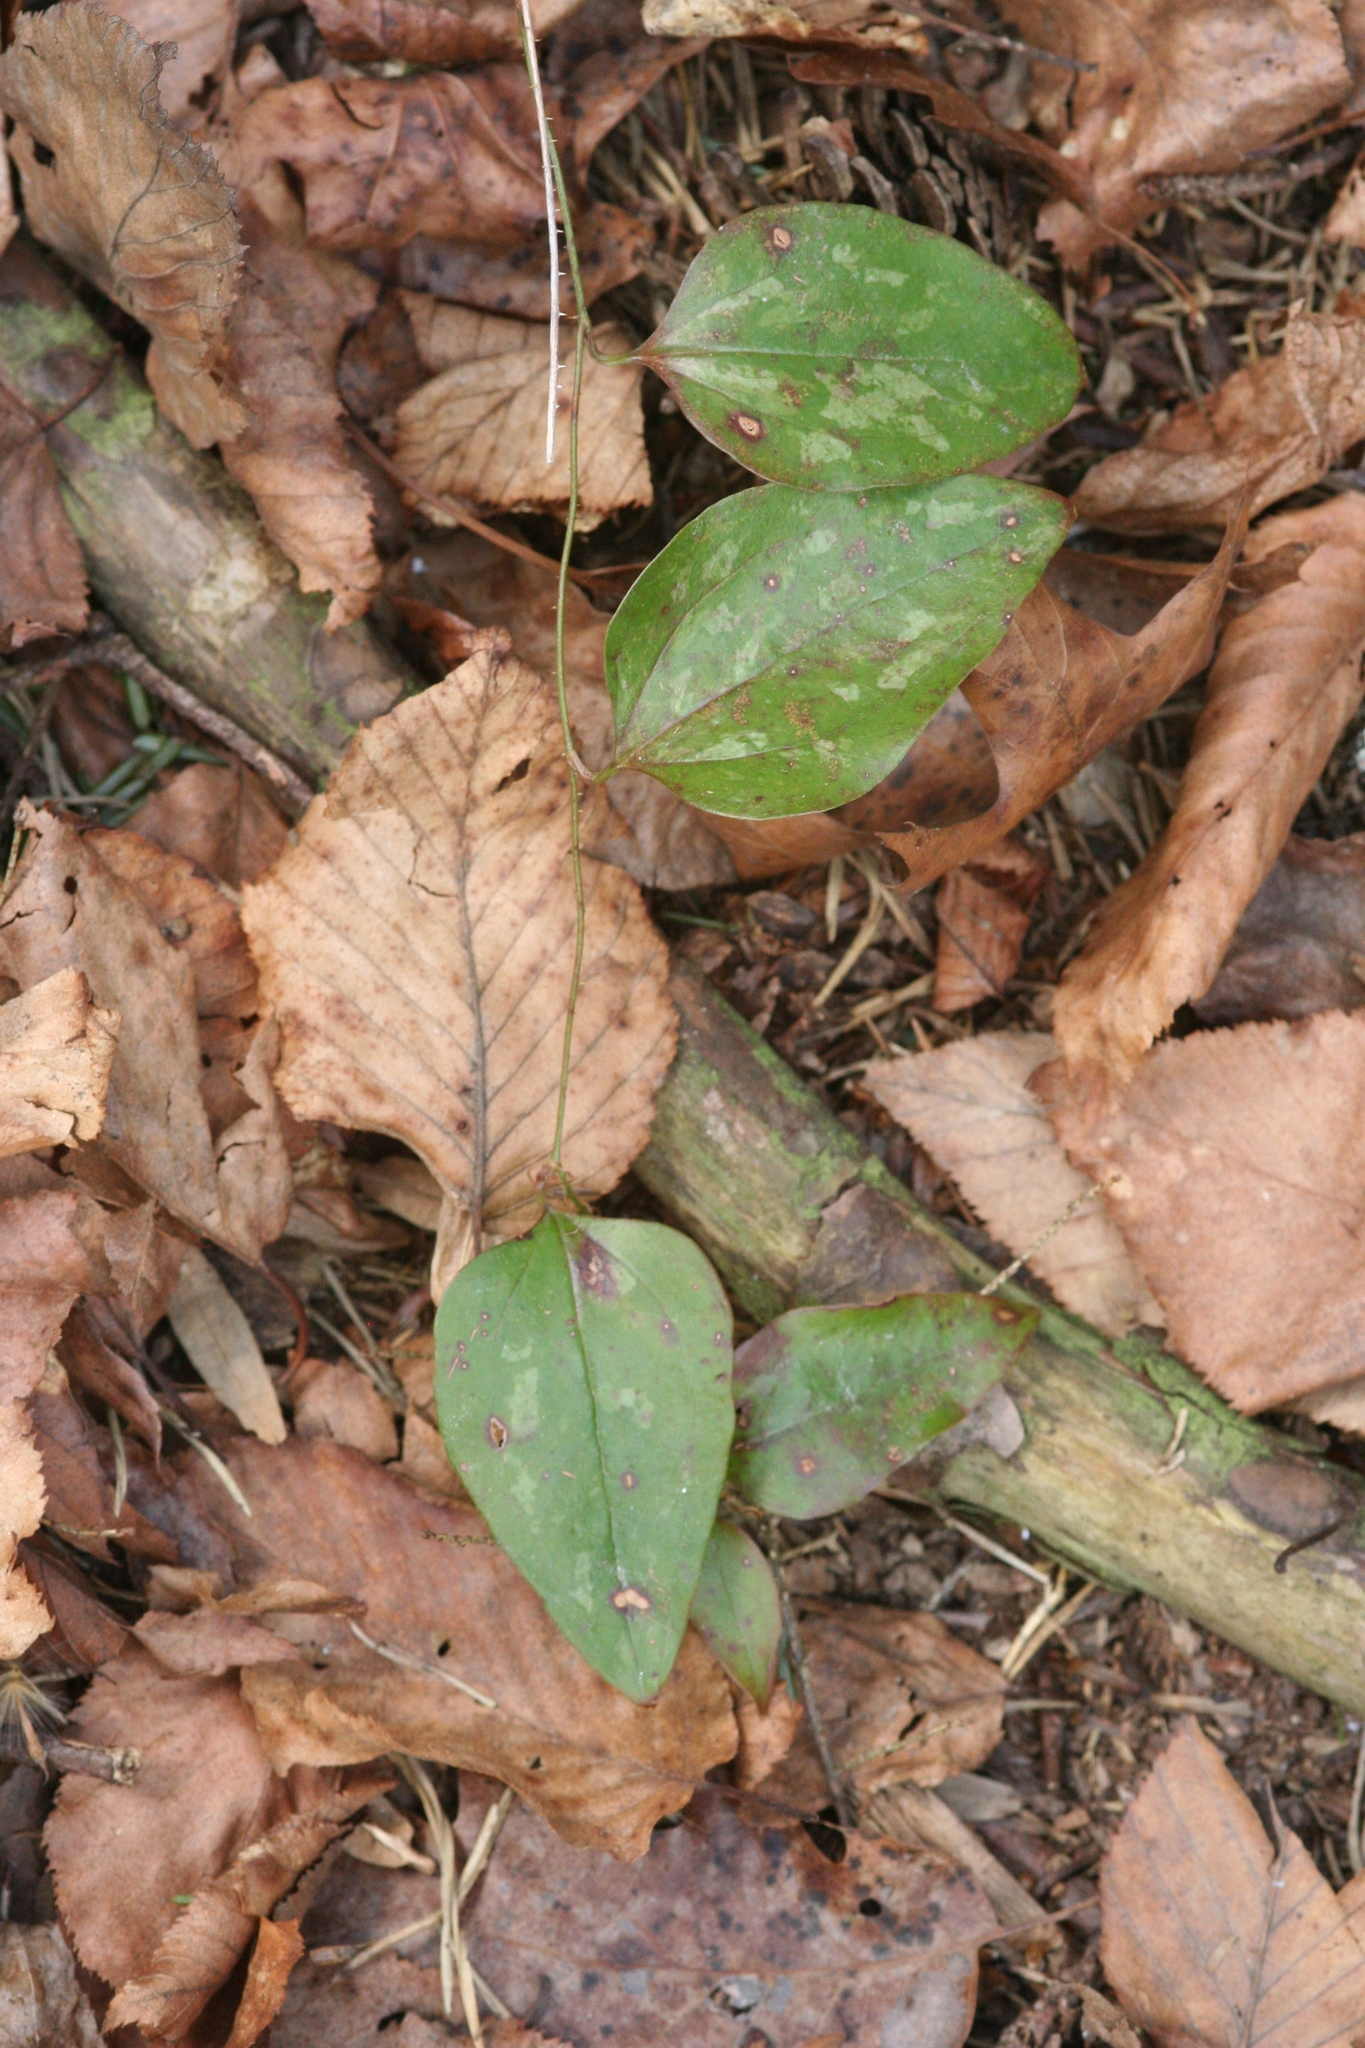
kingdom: Plantae
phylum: Tracheophyta
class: Liliopsida
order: Liliales
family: Smilacaceae
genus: Smilax
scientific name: Smilax glauca
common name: Cat greenbrier
